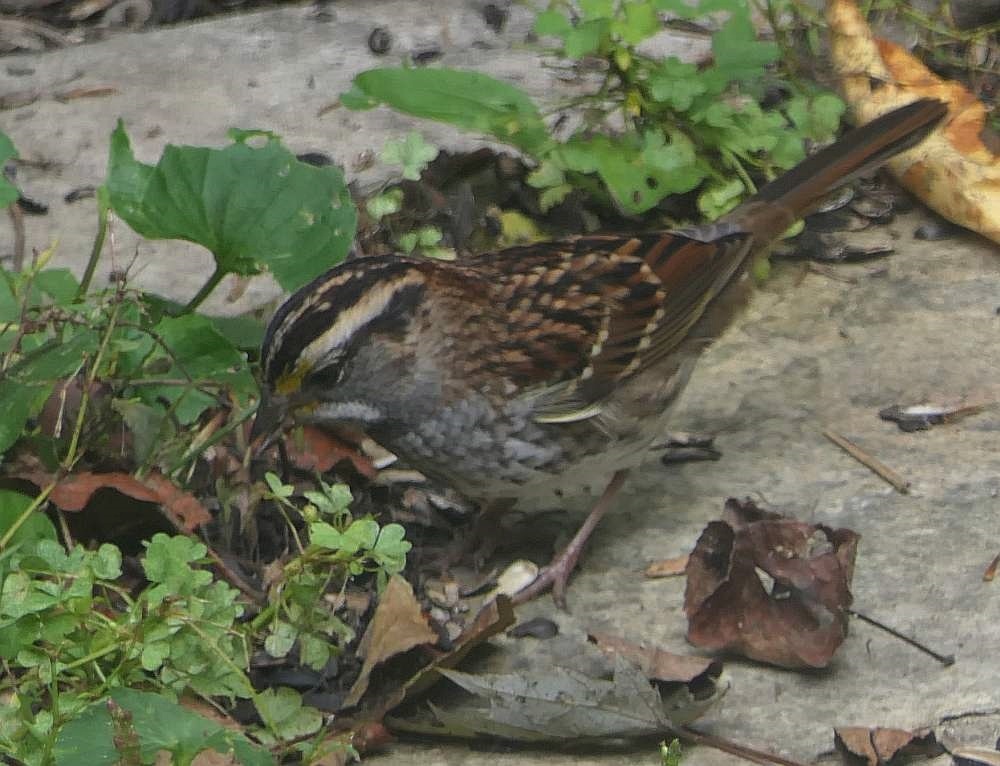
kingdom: Animalia
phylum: Chordata
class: Aves
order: Passeriformes
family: Passerellidae
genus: Zonotrichia
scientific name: Zonotrichia albicollis
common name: White-throated sparrow
